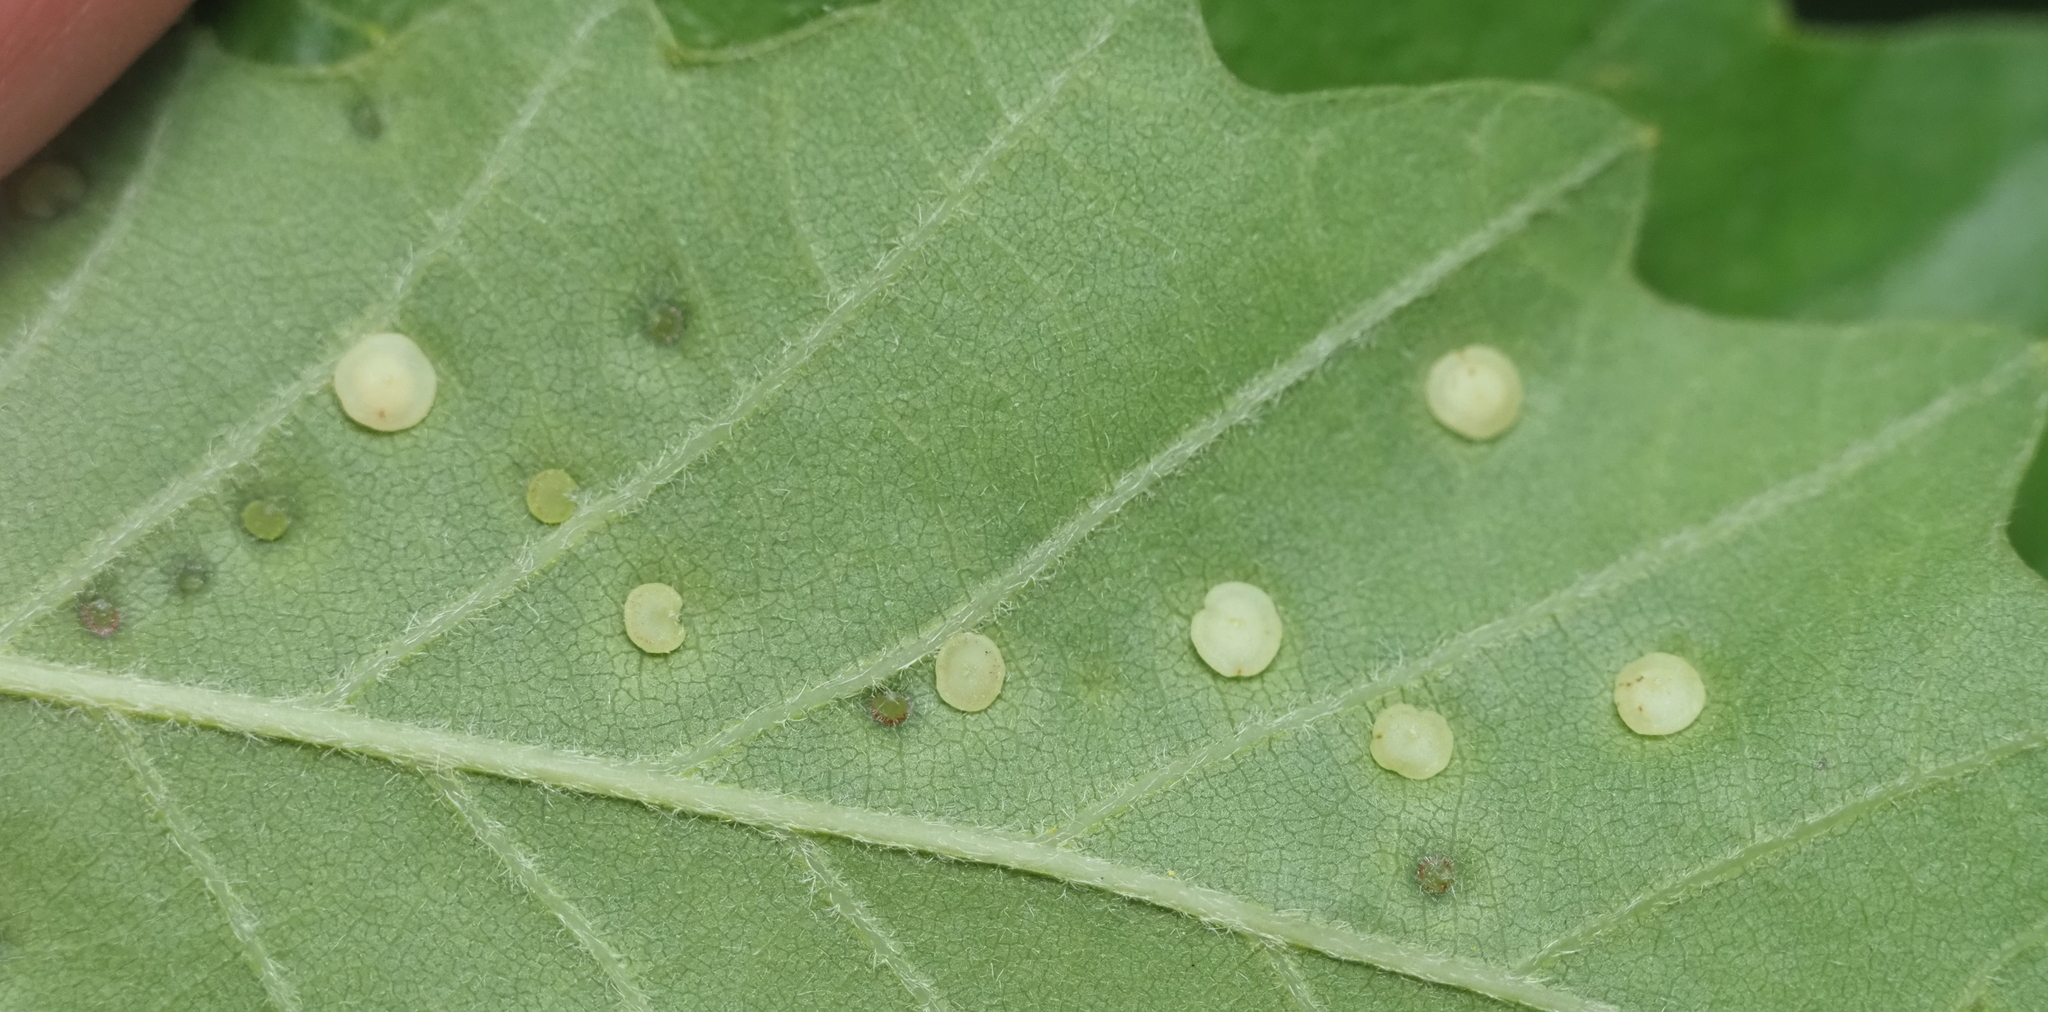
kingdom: Animalia
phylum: Arthropoda
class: Insecta
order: Hymenoptera
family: Cynipidae
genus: Neuroterus
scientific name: Neuroterus
